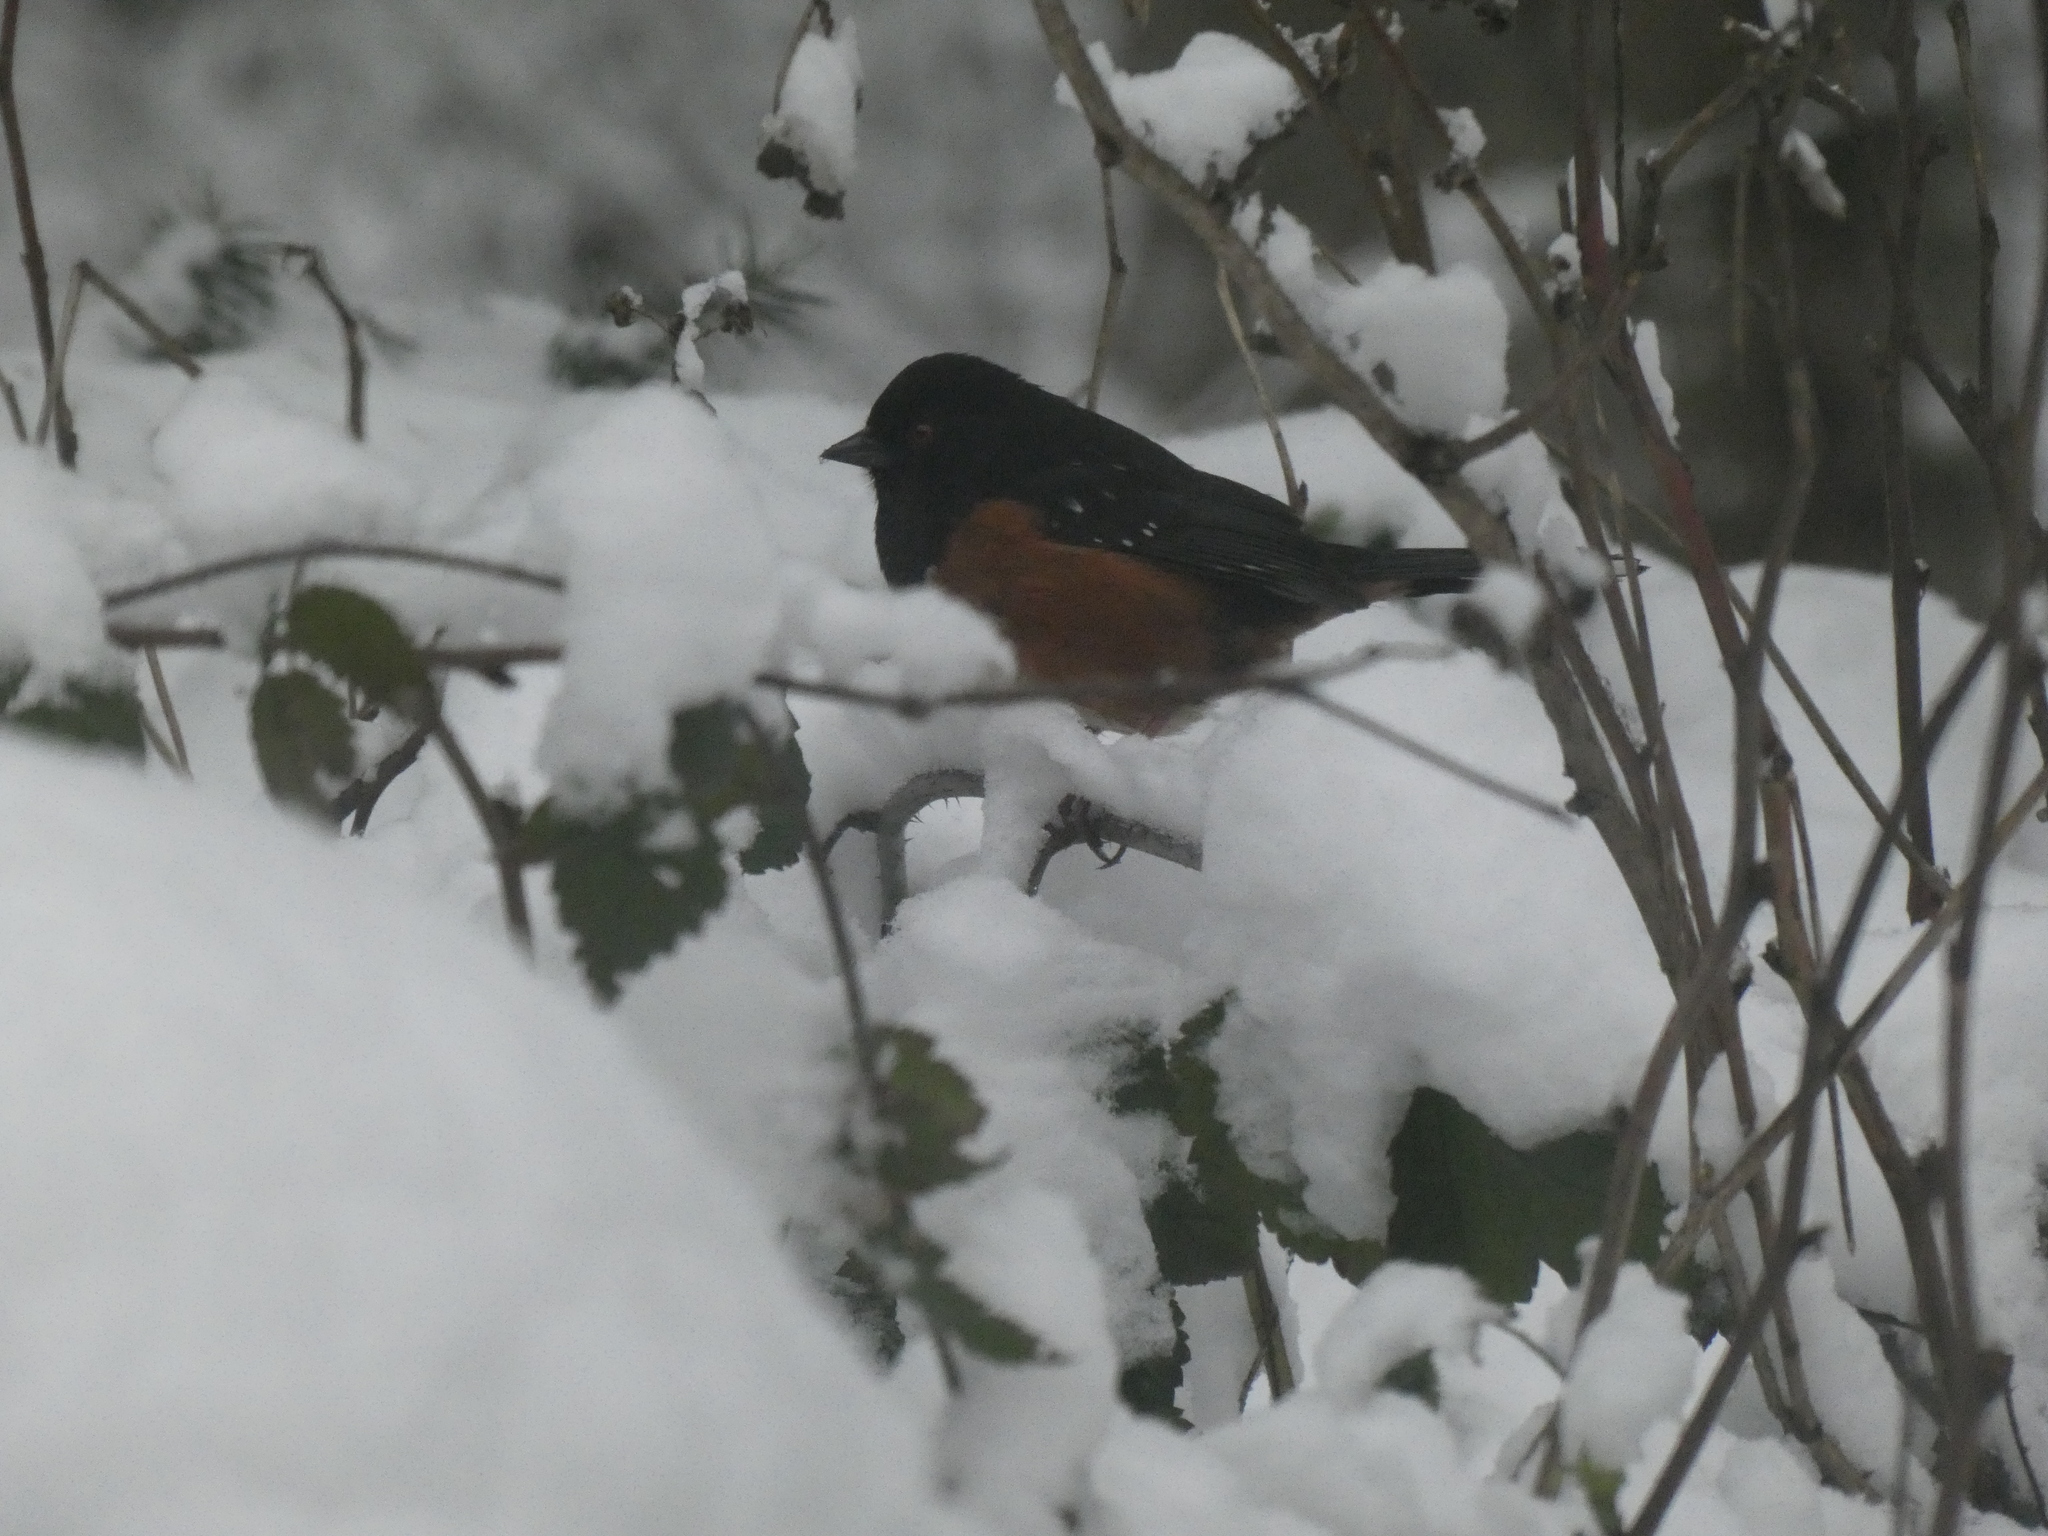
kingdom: Animalia
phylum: Chordata
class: Aves
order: Passeriformes
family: Passerellidae
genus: Pipilo
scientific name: Pipilo maculatus
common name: Spotted towhee
